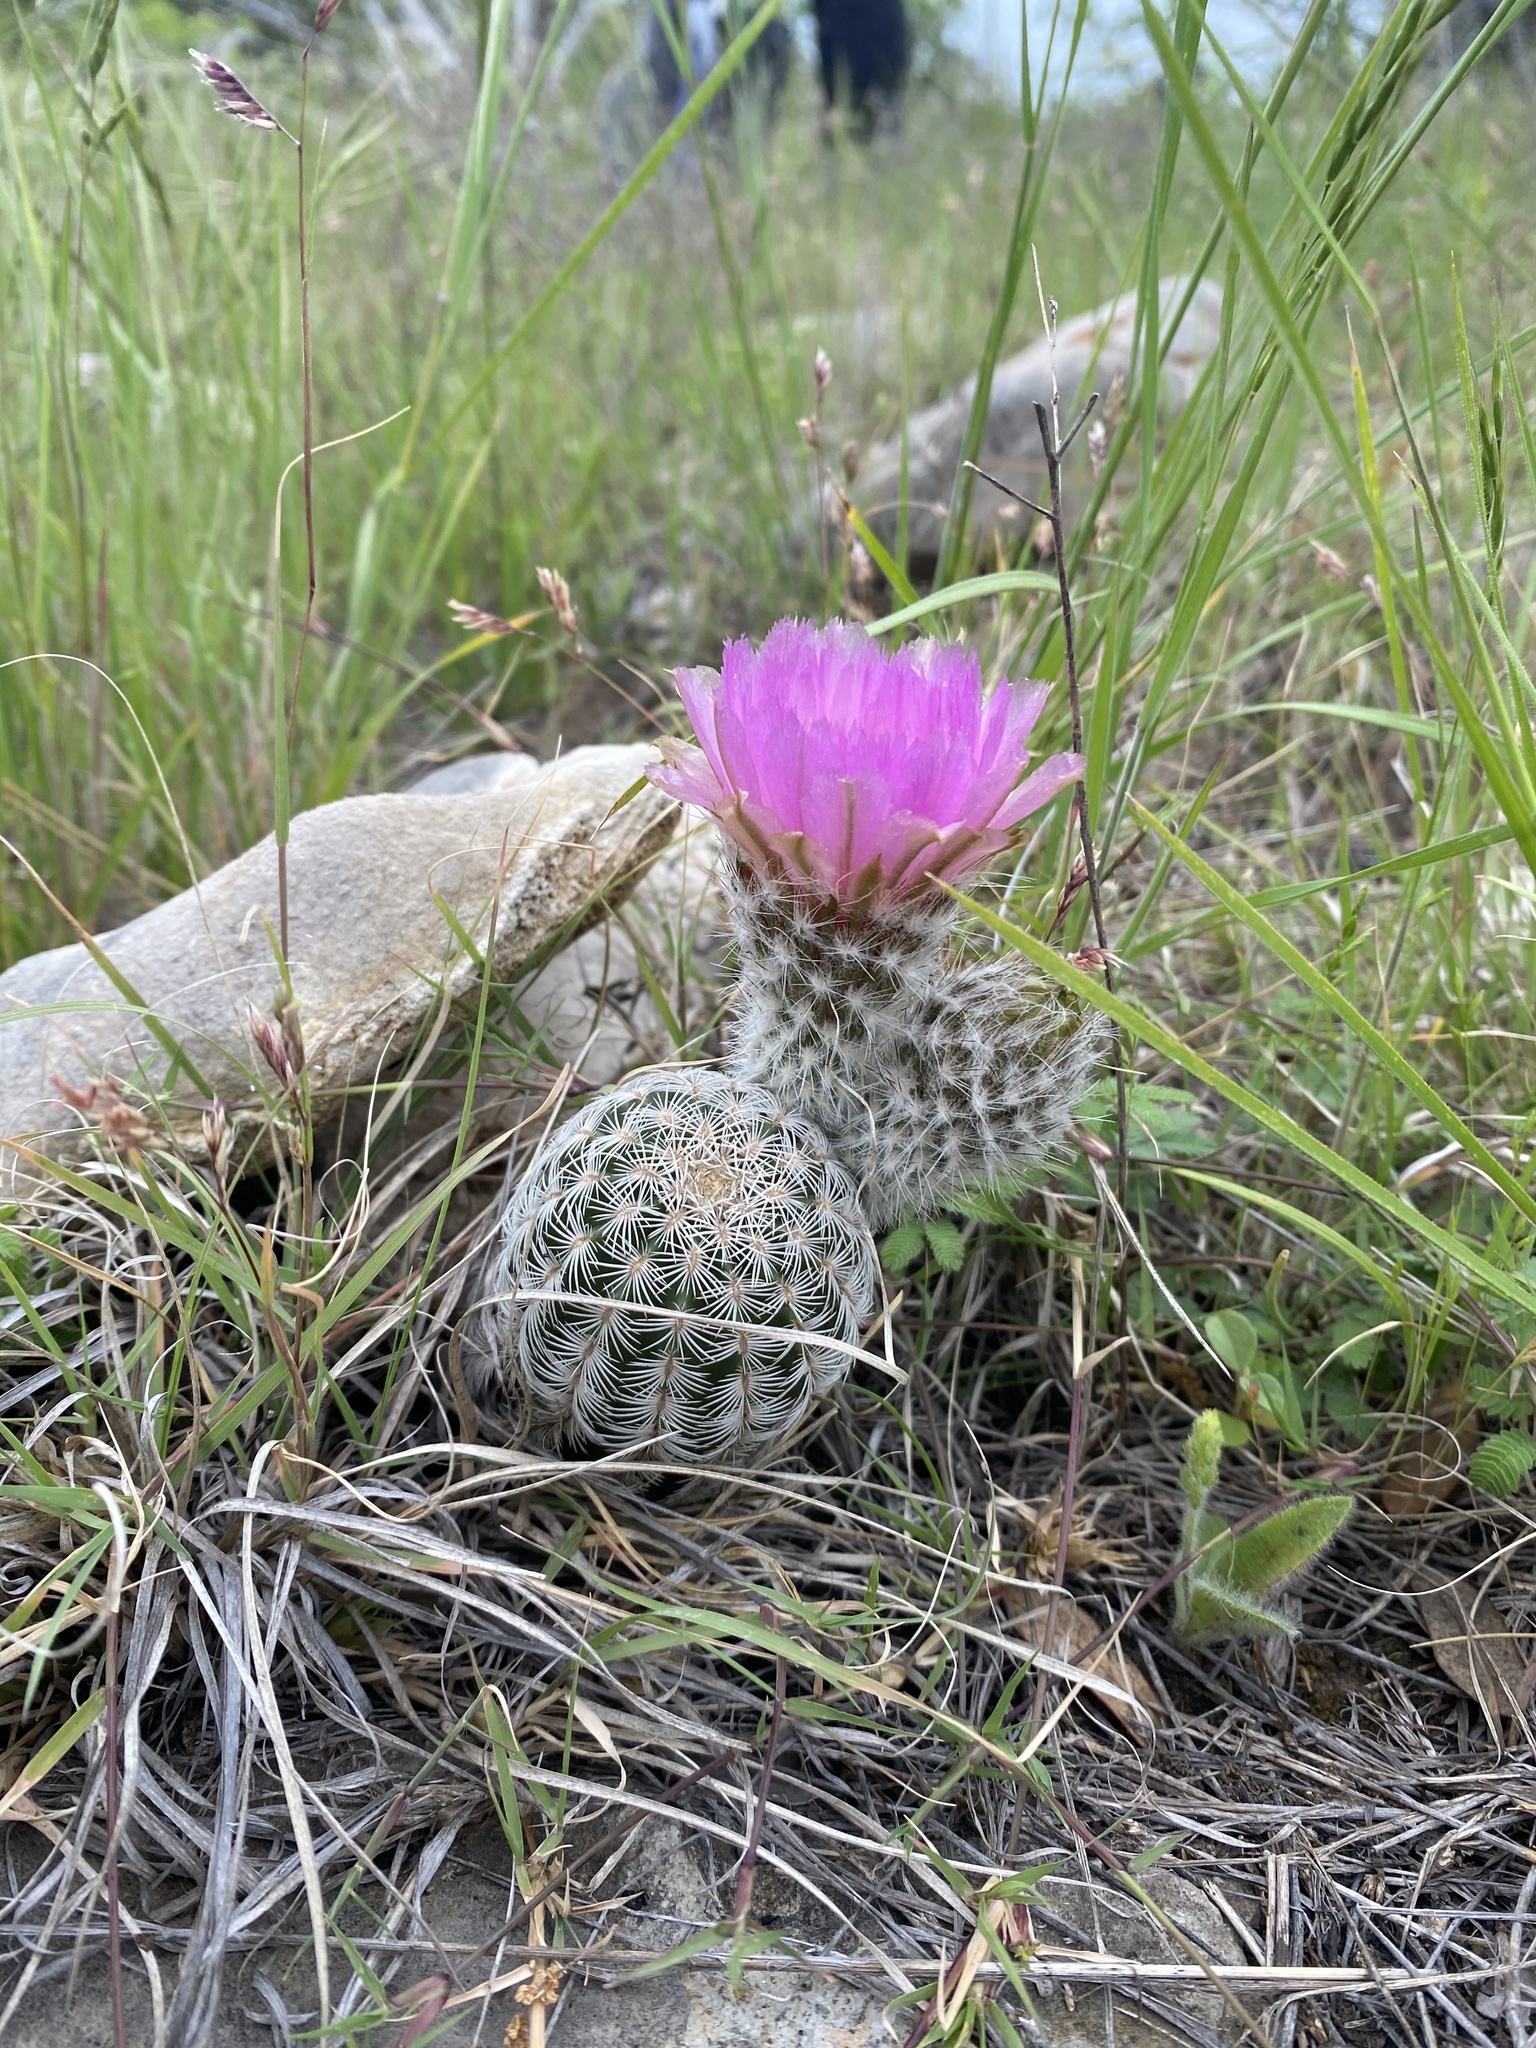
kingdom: Plantae
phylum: Tracheophyta
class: Magnoliopsida
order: Caryophyllales
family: Cactaceae
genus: Echinocereus
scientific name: Echinocereus reichenbachii
